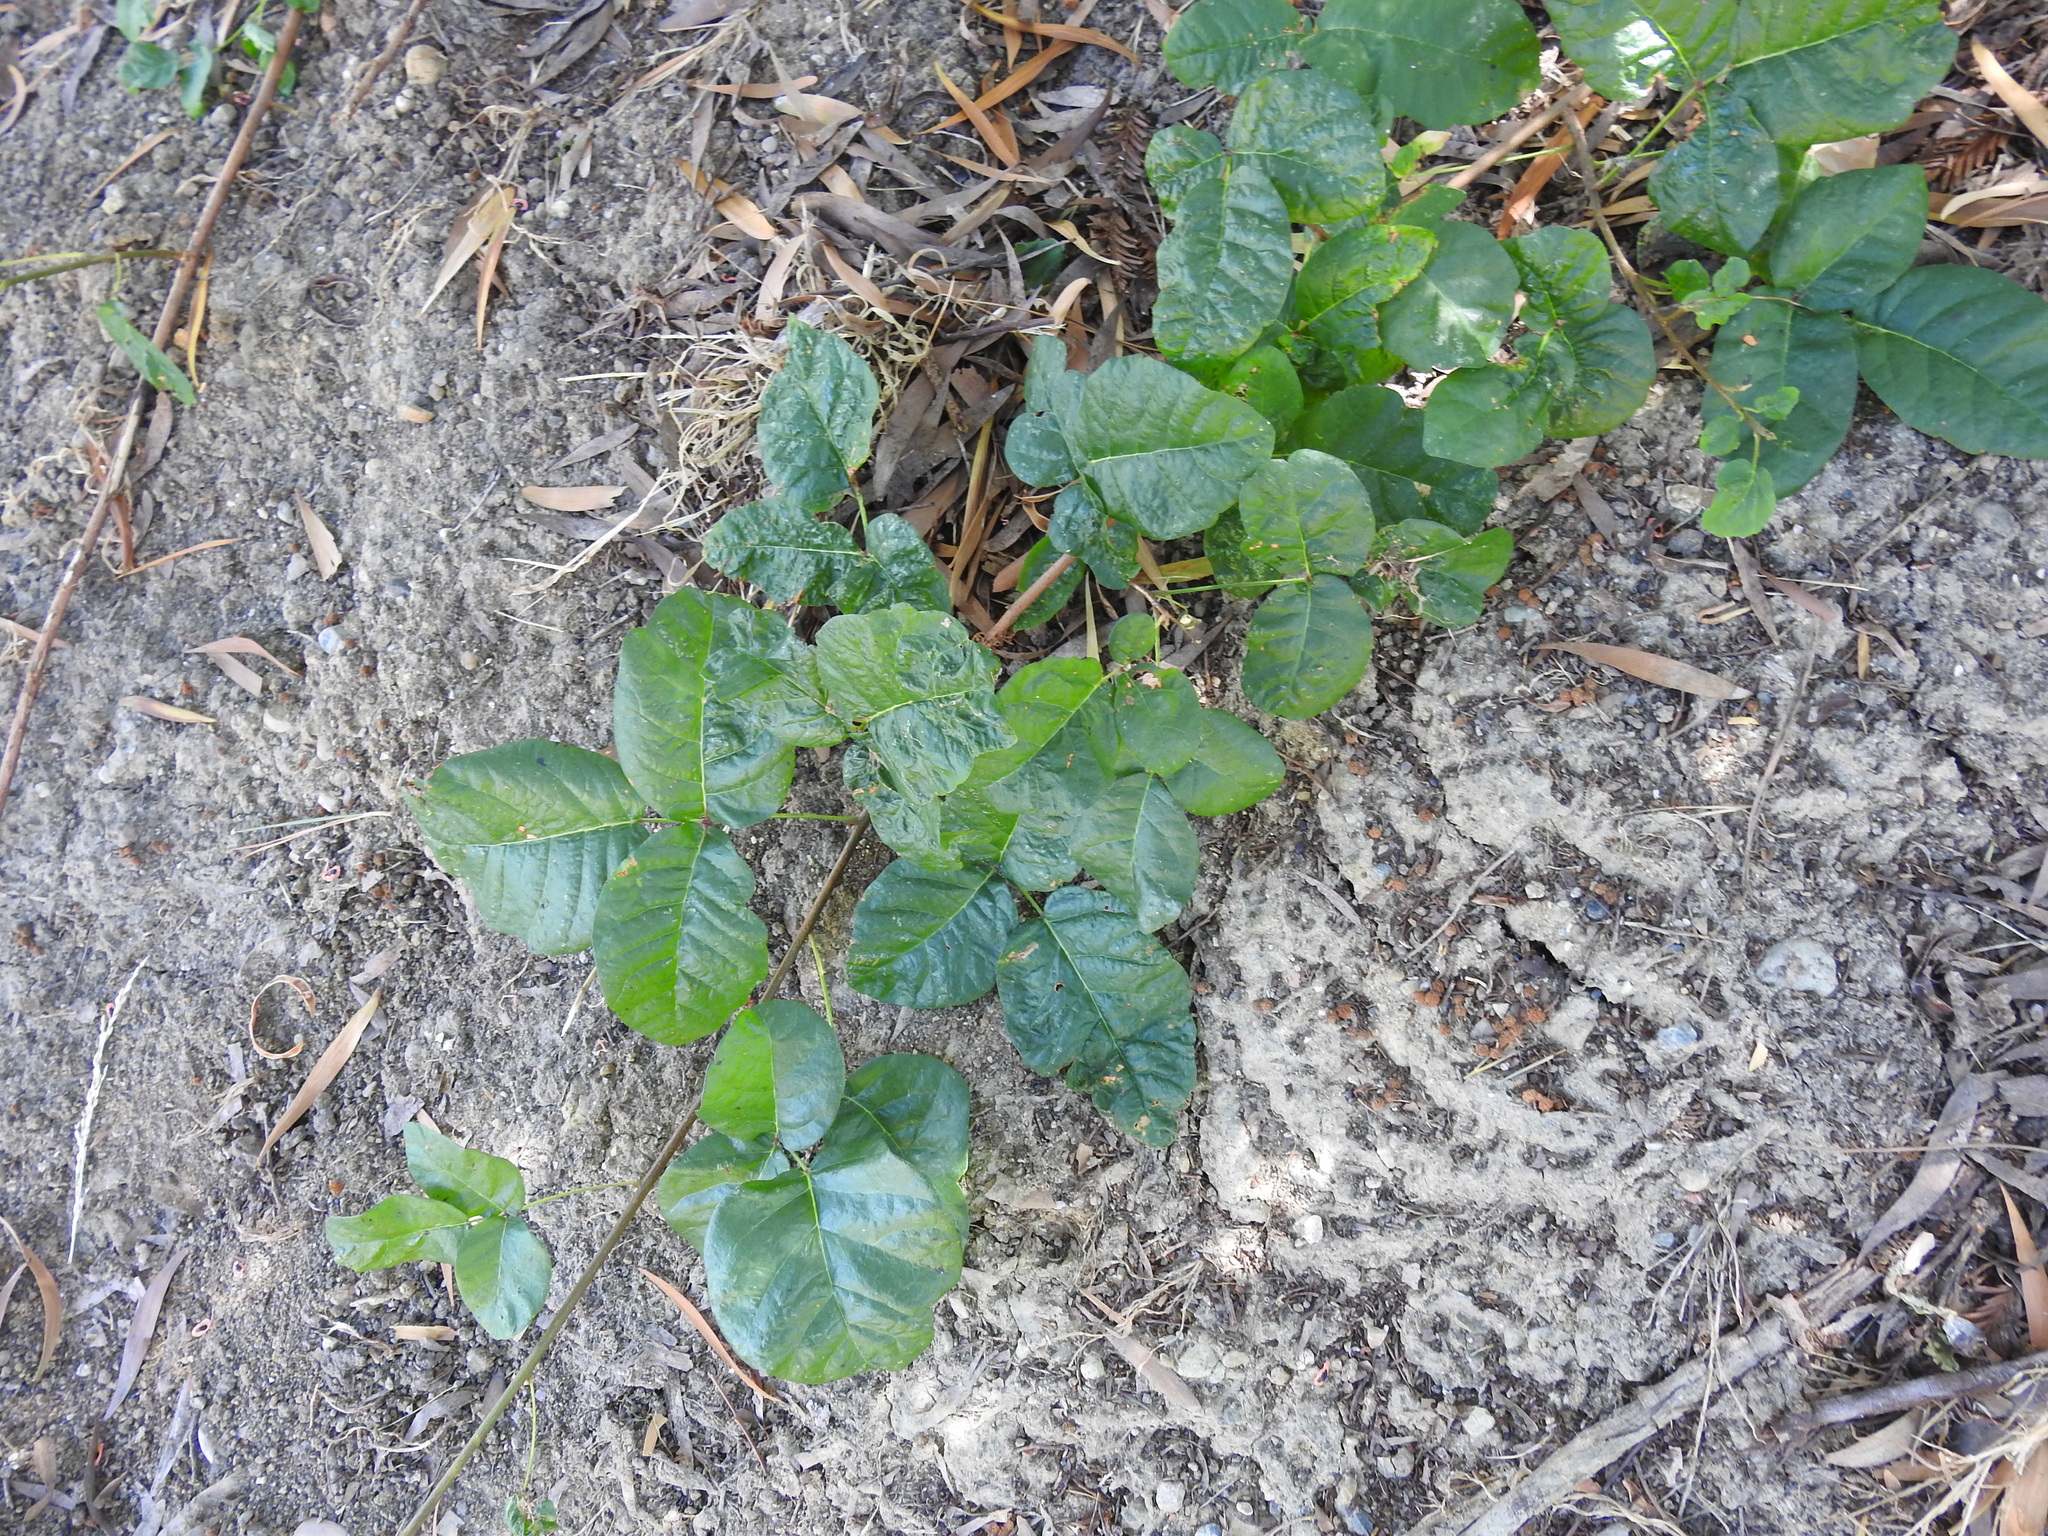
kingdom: Plantae
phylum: Tracheophyta
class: Magnoliopsida
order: Sapindales
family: Anacardiaceae
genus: Toxicodendron
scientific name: Toxicodendron diversilobum
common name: Pacific poison-oak
